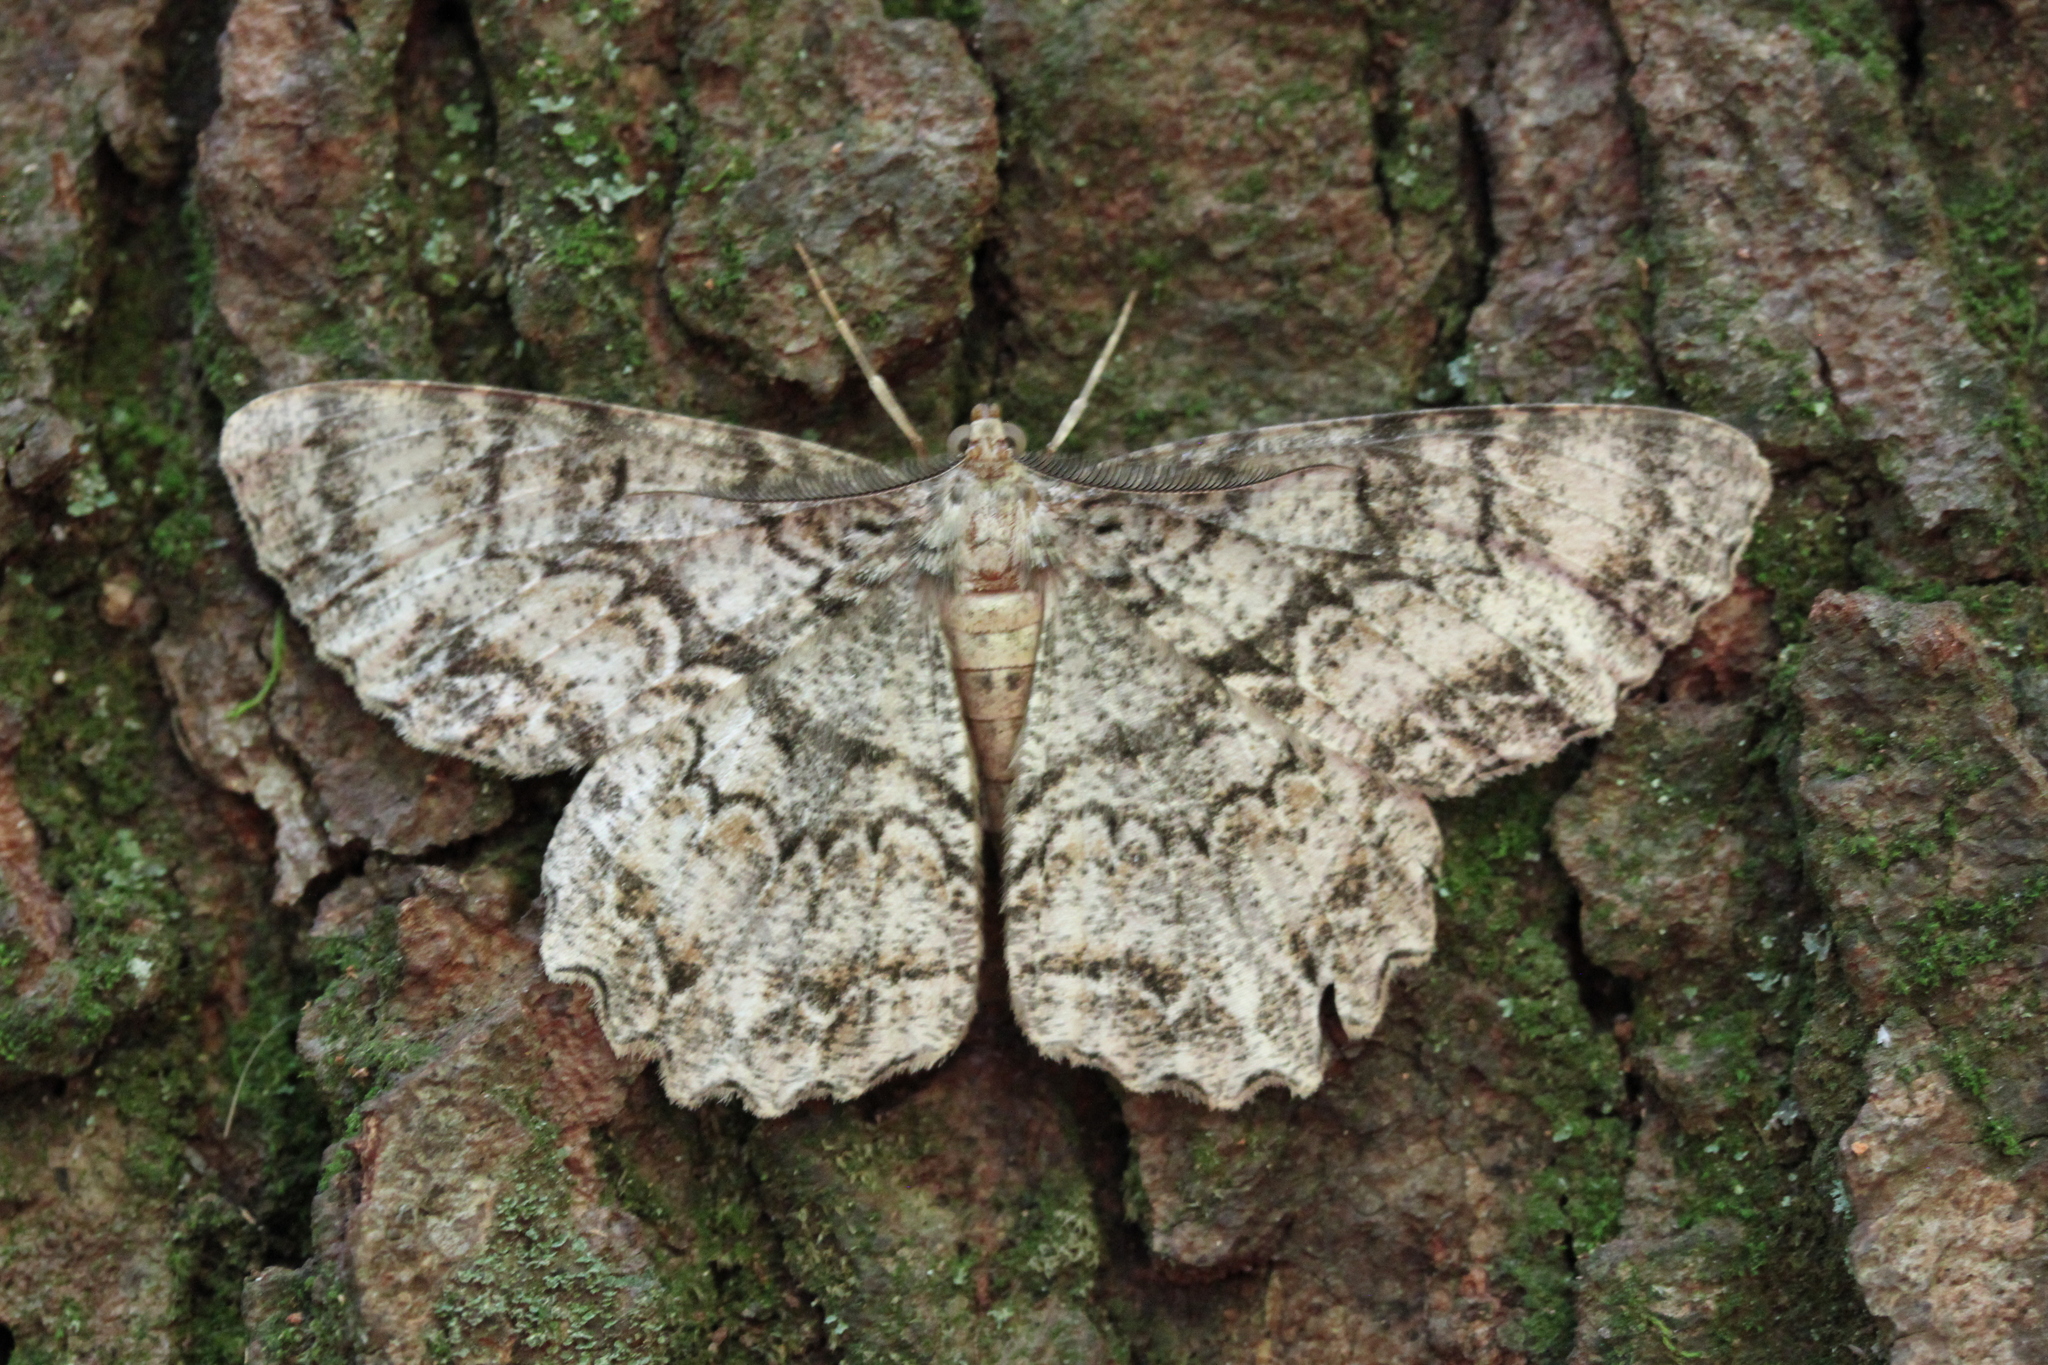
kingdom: Animalia
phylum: Arthropoda
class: Insecta
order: Lepidoptera
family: Geometridae
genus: Epimecis
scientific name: Epimecis hortaria
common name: Tulip-tree beauty
